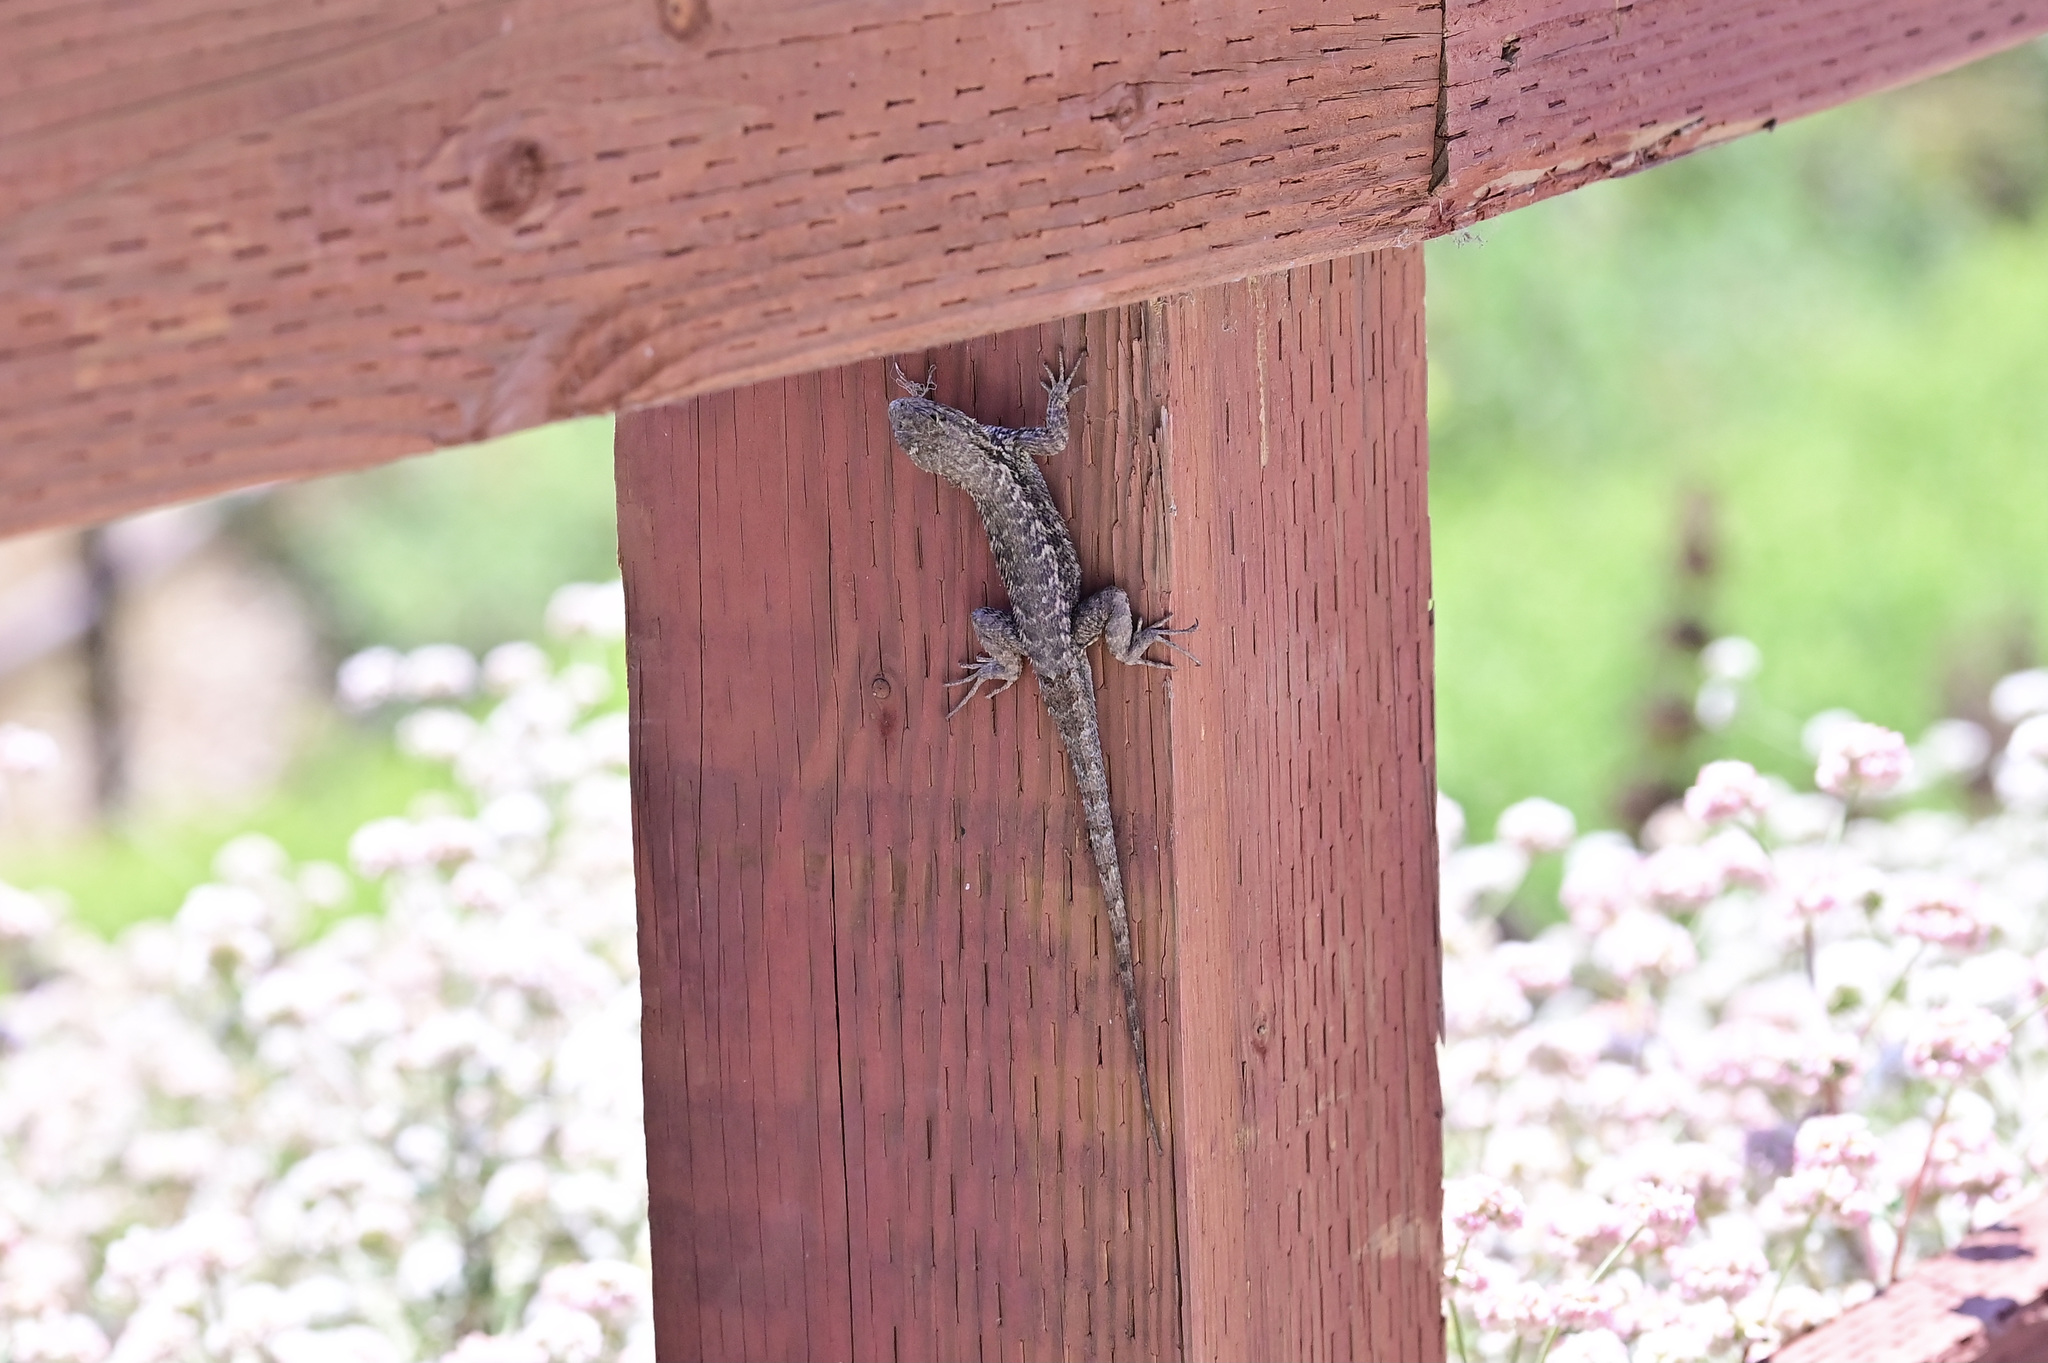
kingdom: Animalia
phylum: Chordata
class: Squamata
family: Phrynosomatidae
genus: Sceloporus
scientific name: Sceloporus occidentalis
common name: Western fence lizard
